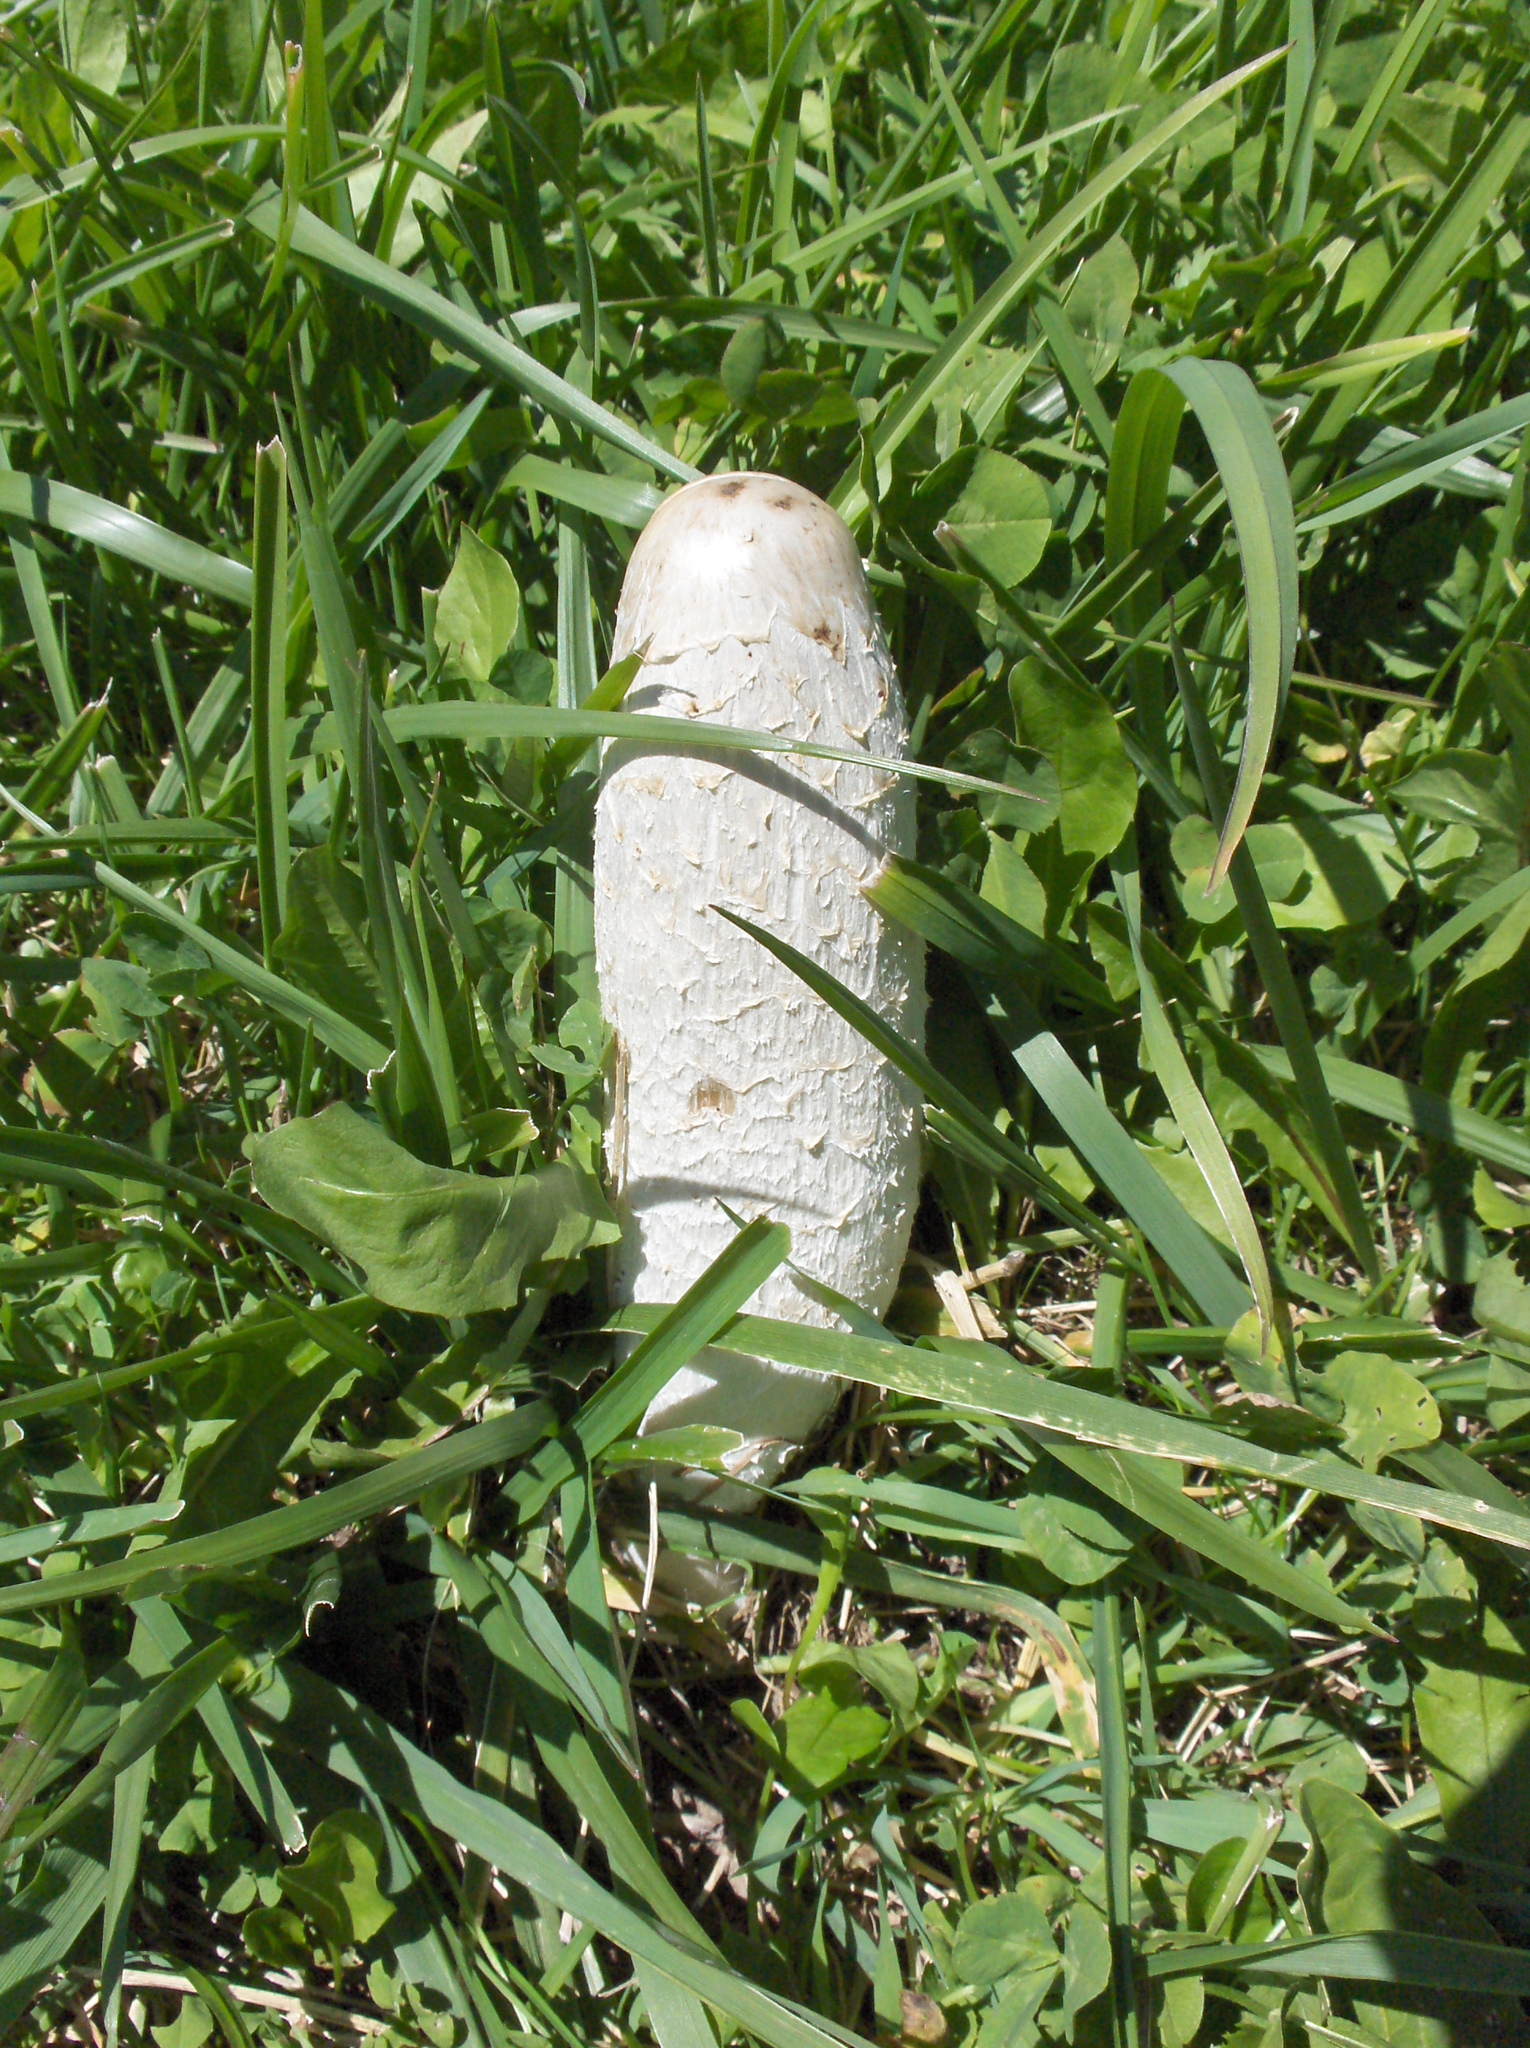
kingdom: Fungi
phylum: Basidiomycota
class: Agaricomycetes
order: Agaricales
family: Agaricaceae
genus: Coprinus
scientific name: Coprinus comatus
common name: Lawyer's wig
